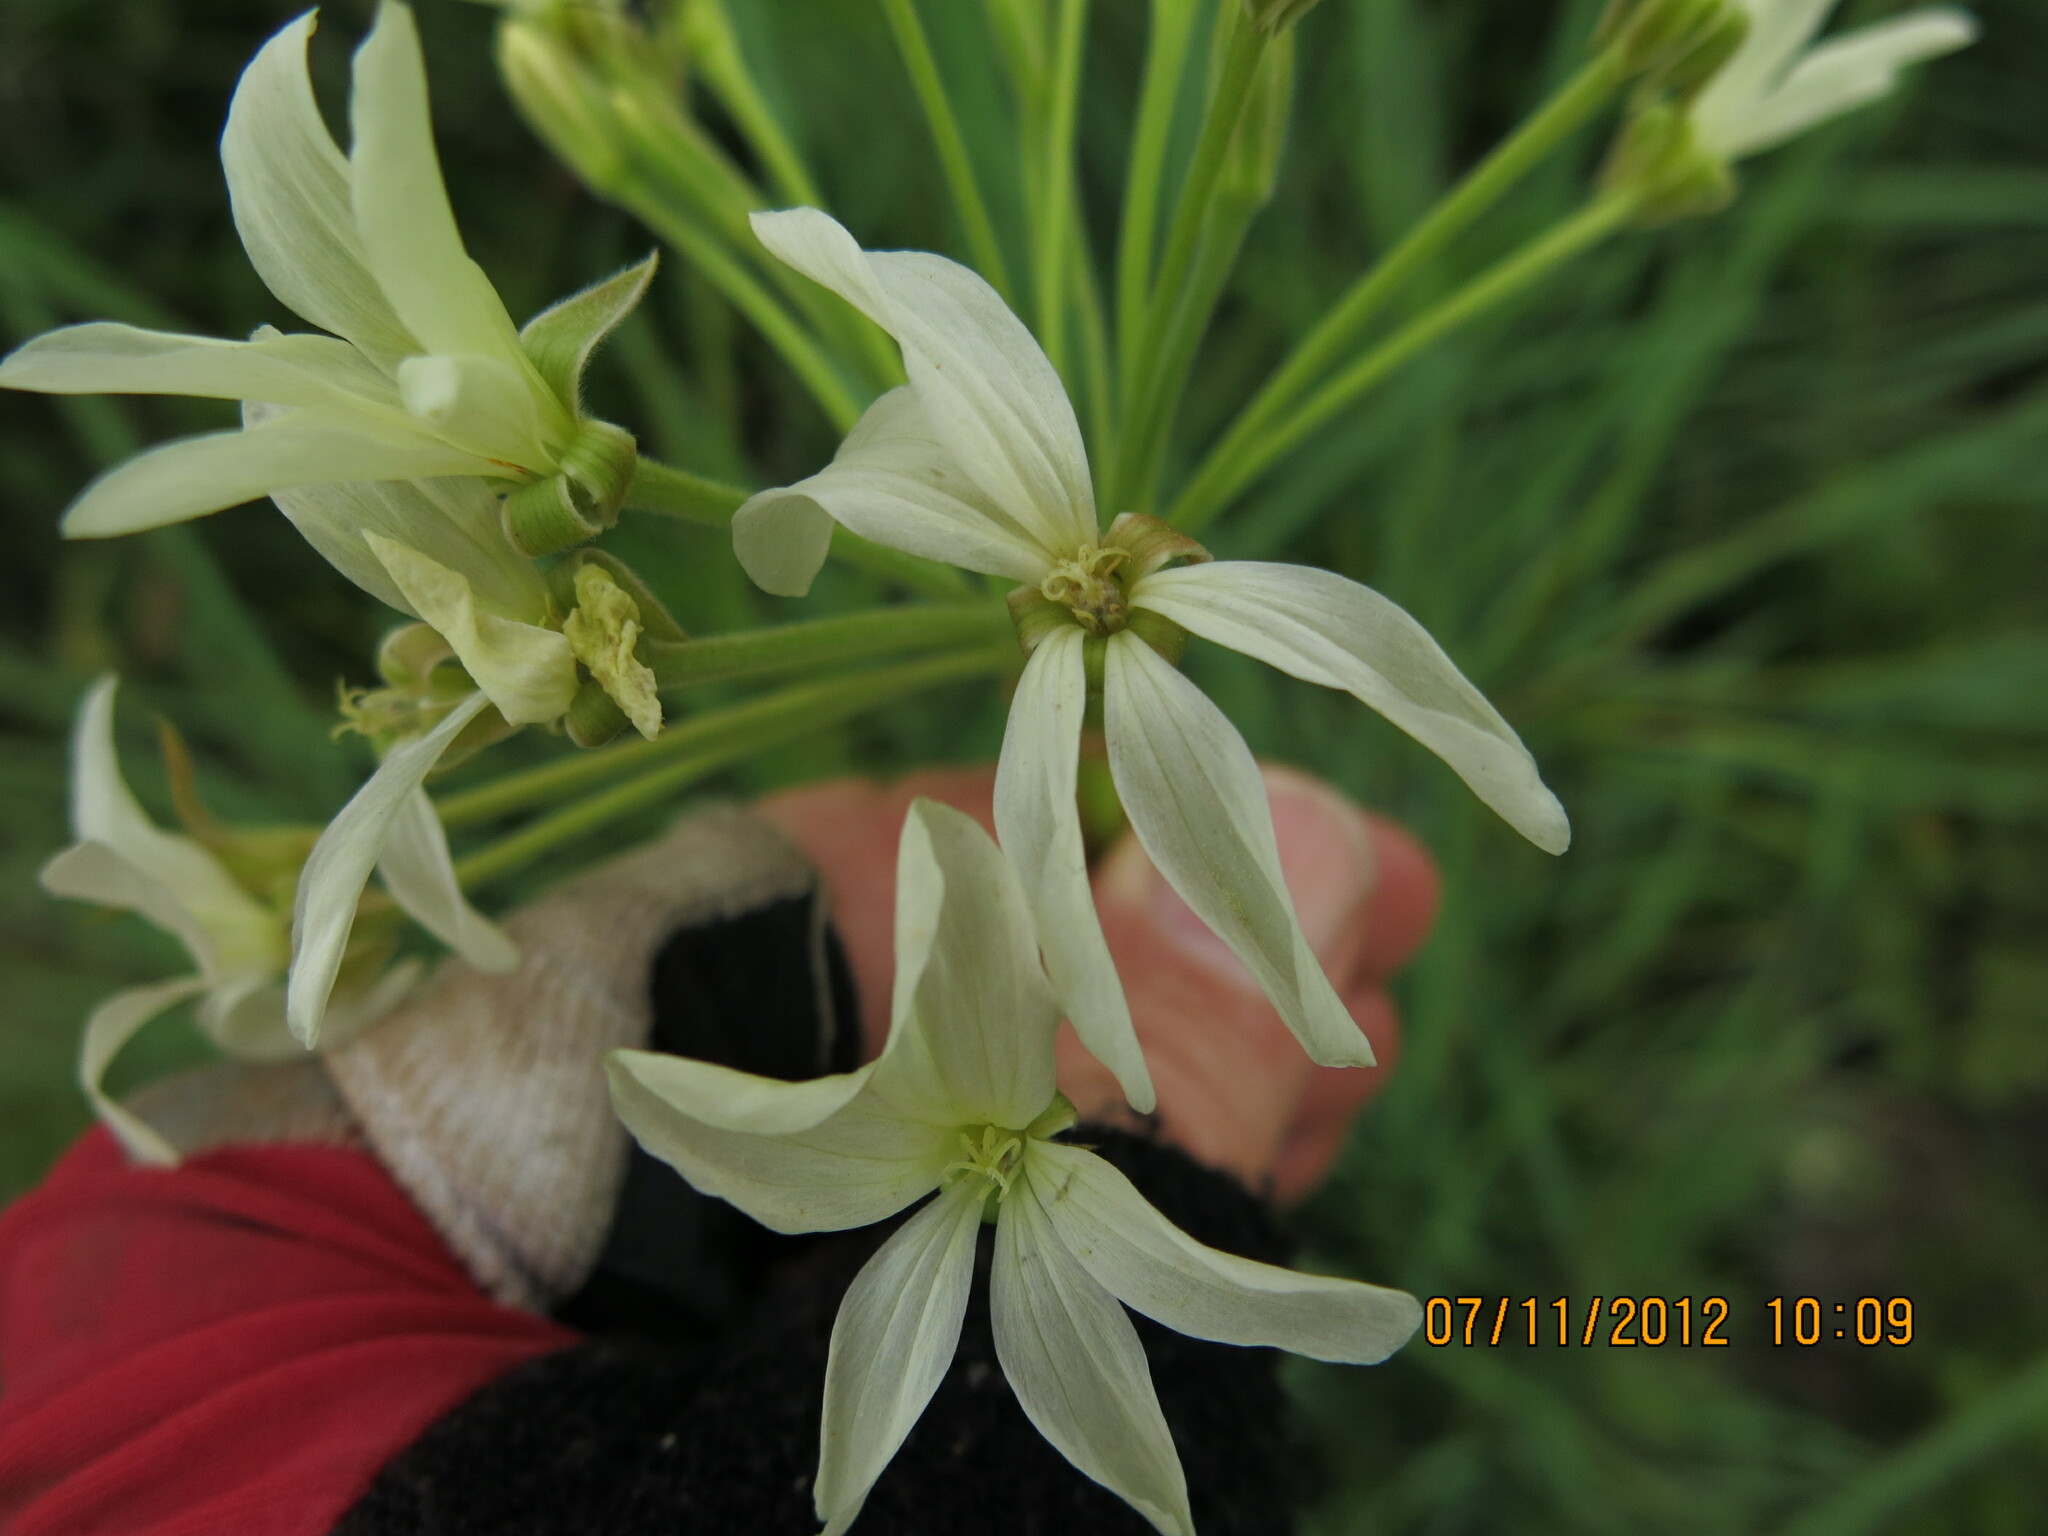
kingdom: Plantae
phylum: Tracheophyta
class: Magnoliopsida
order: Geraniales
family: Geraniaceae
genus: Pelargonium
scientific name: Pelargonium luridum
